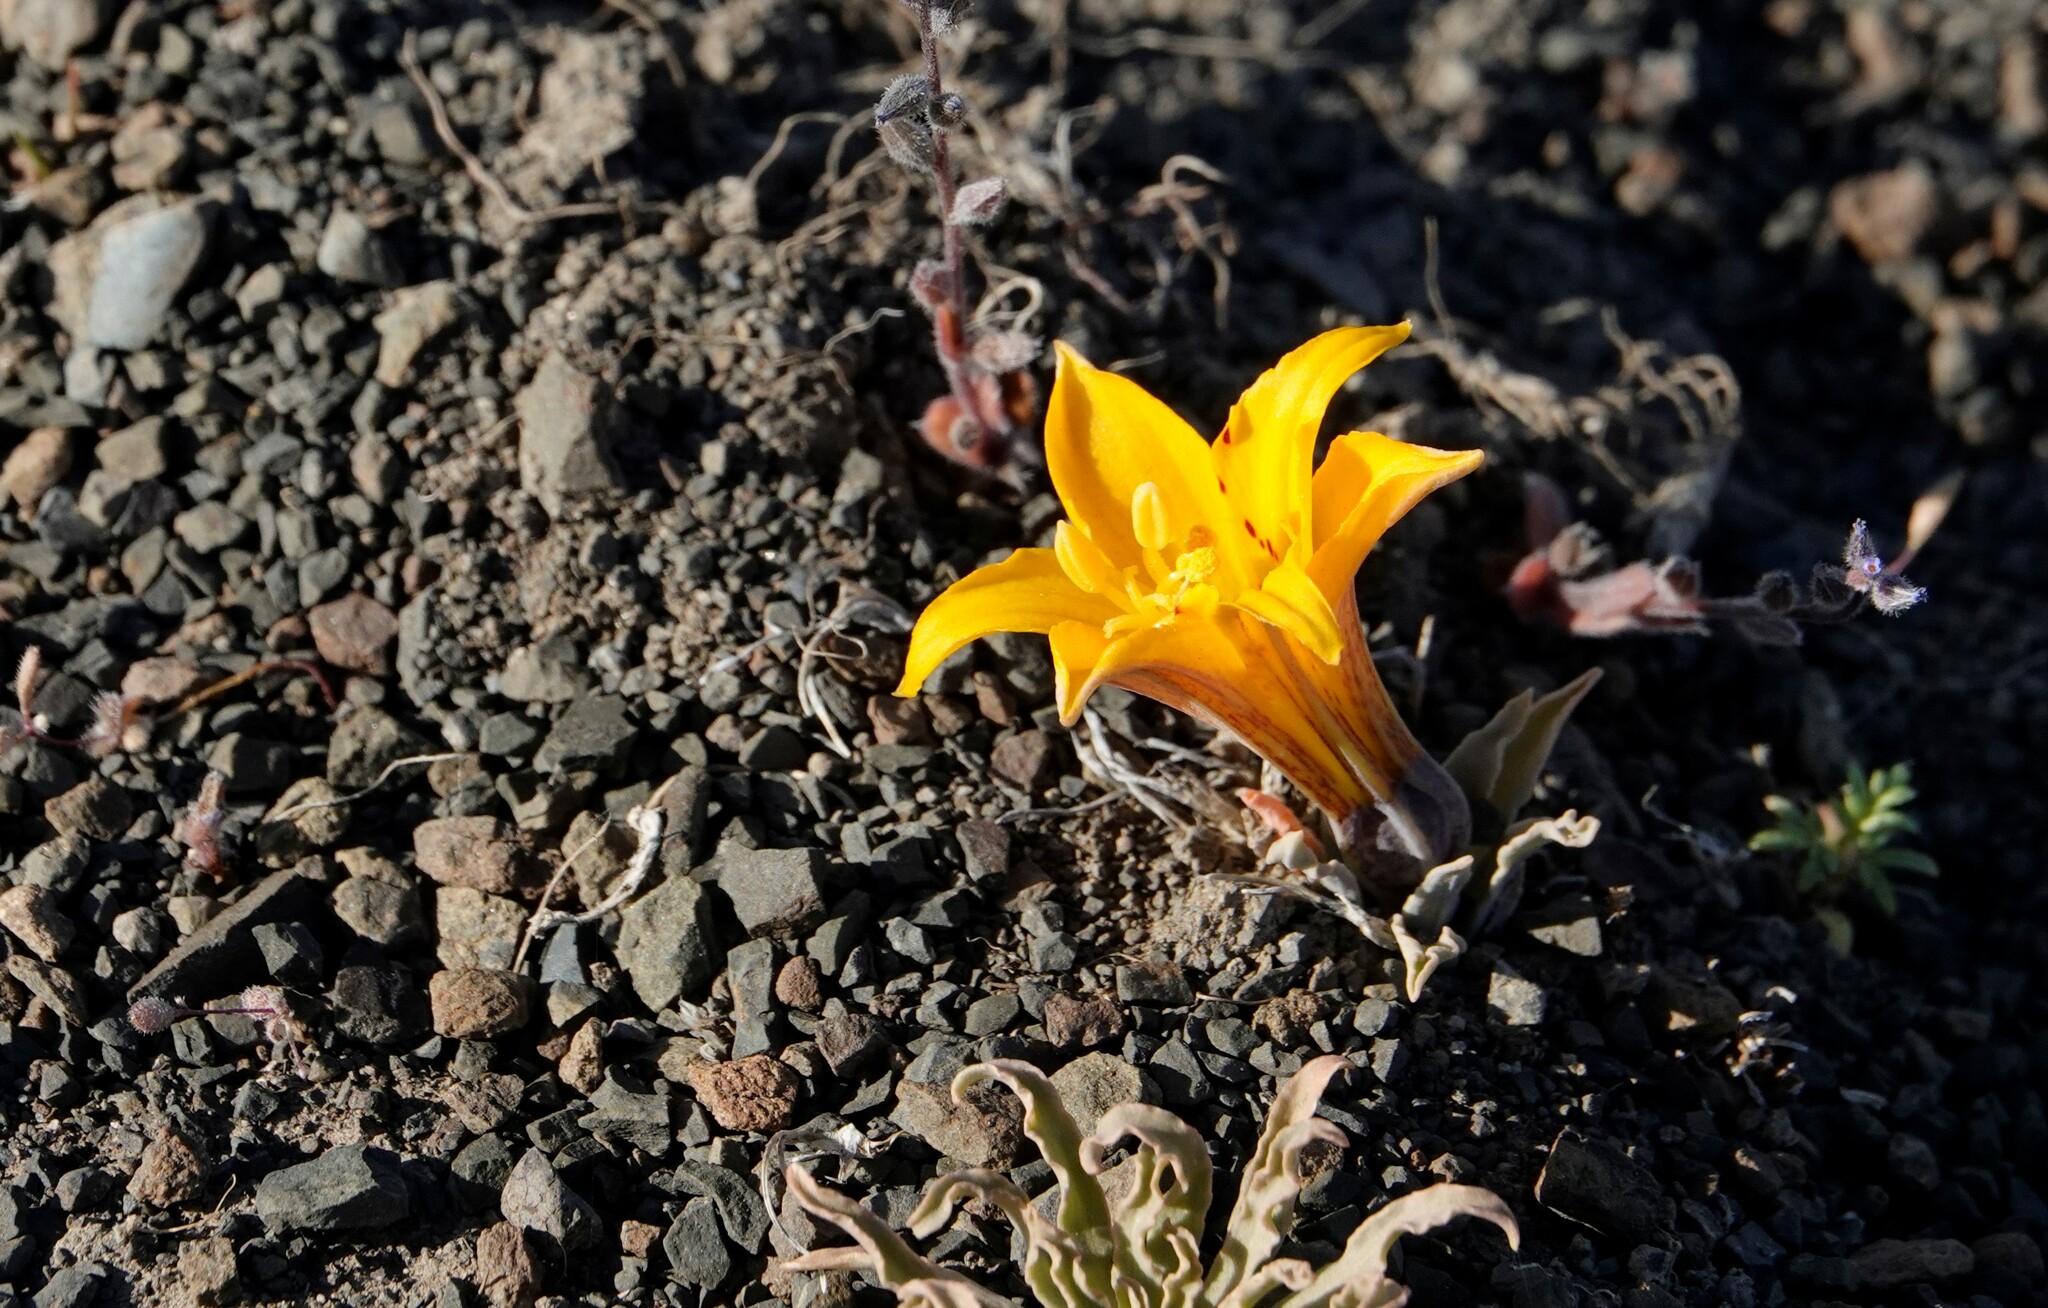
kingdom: Plantae
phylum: Tracheophyta
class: Liliopsida
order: Liliales
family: Alstroemeriaceae
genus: Alstroemeria
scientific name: Alstroemeria patagonica
